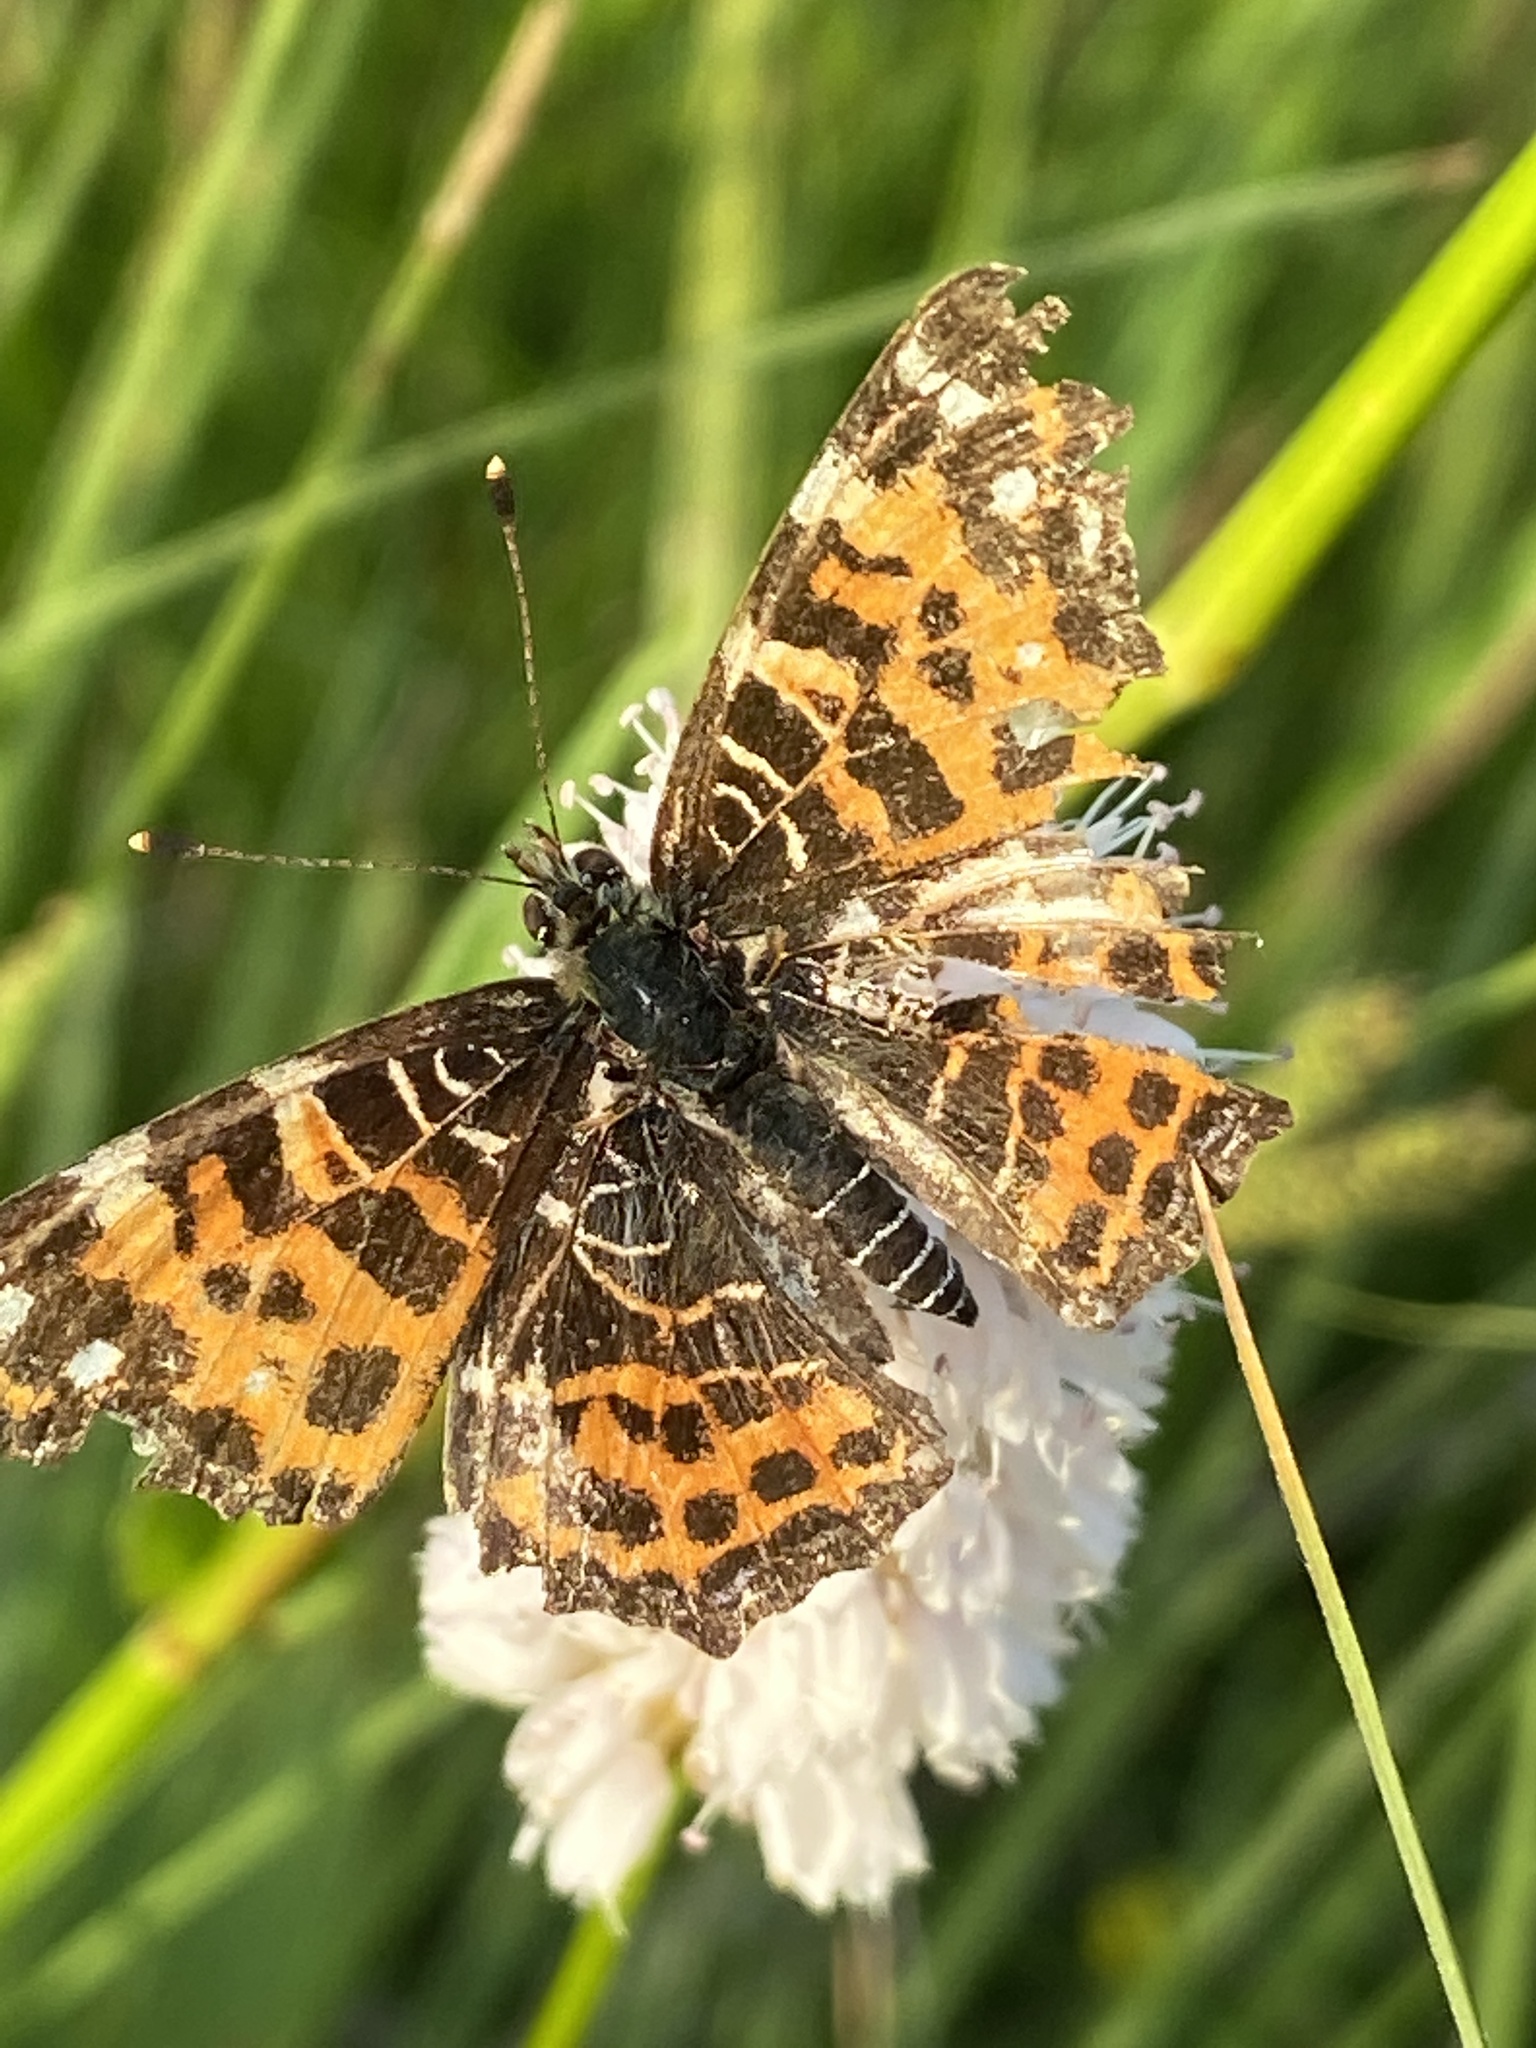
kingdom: Animalia
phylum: Arthropoda
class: Insecta
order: Lepidoptera
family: Nymphalidae
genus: Araschnia
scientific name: Araschnia levana
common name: Map butterfly
